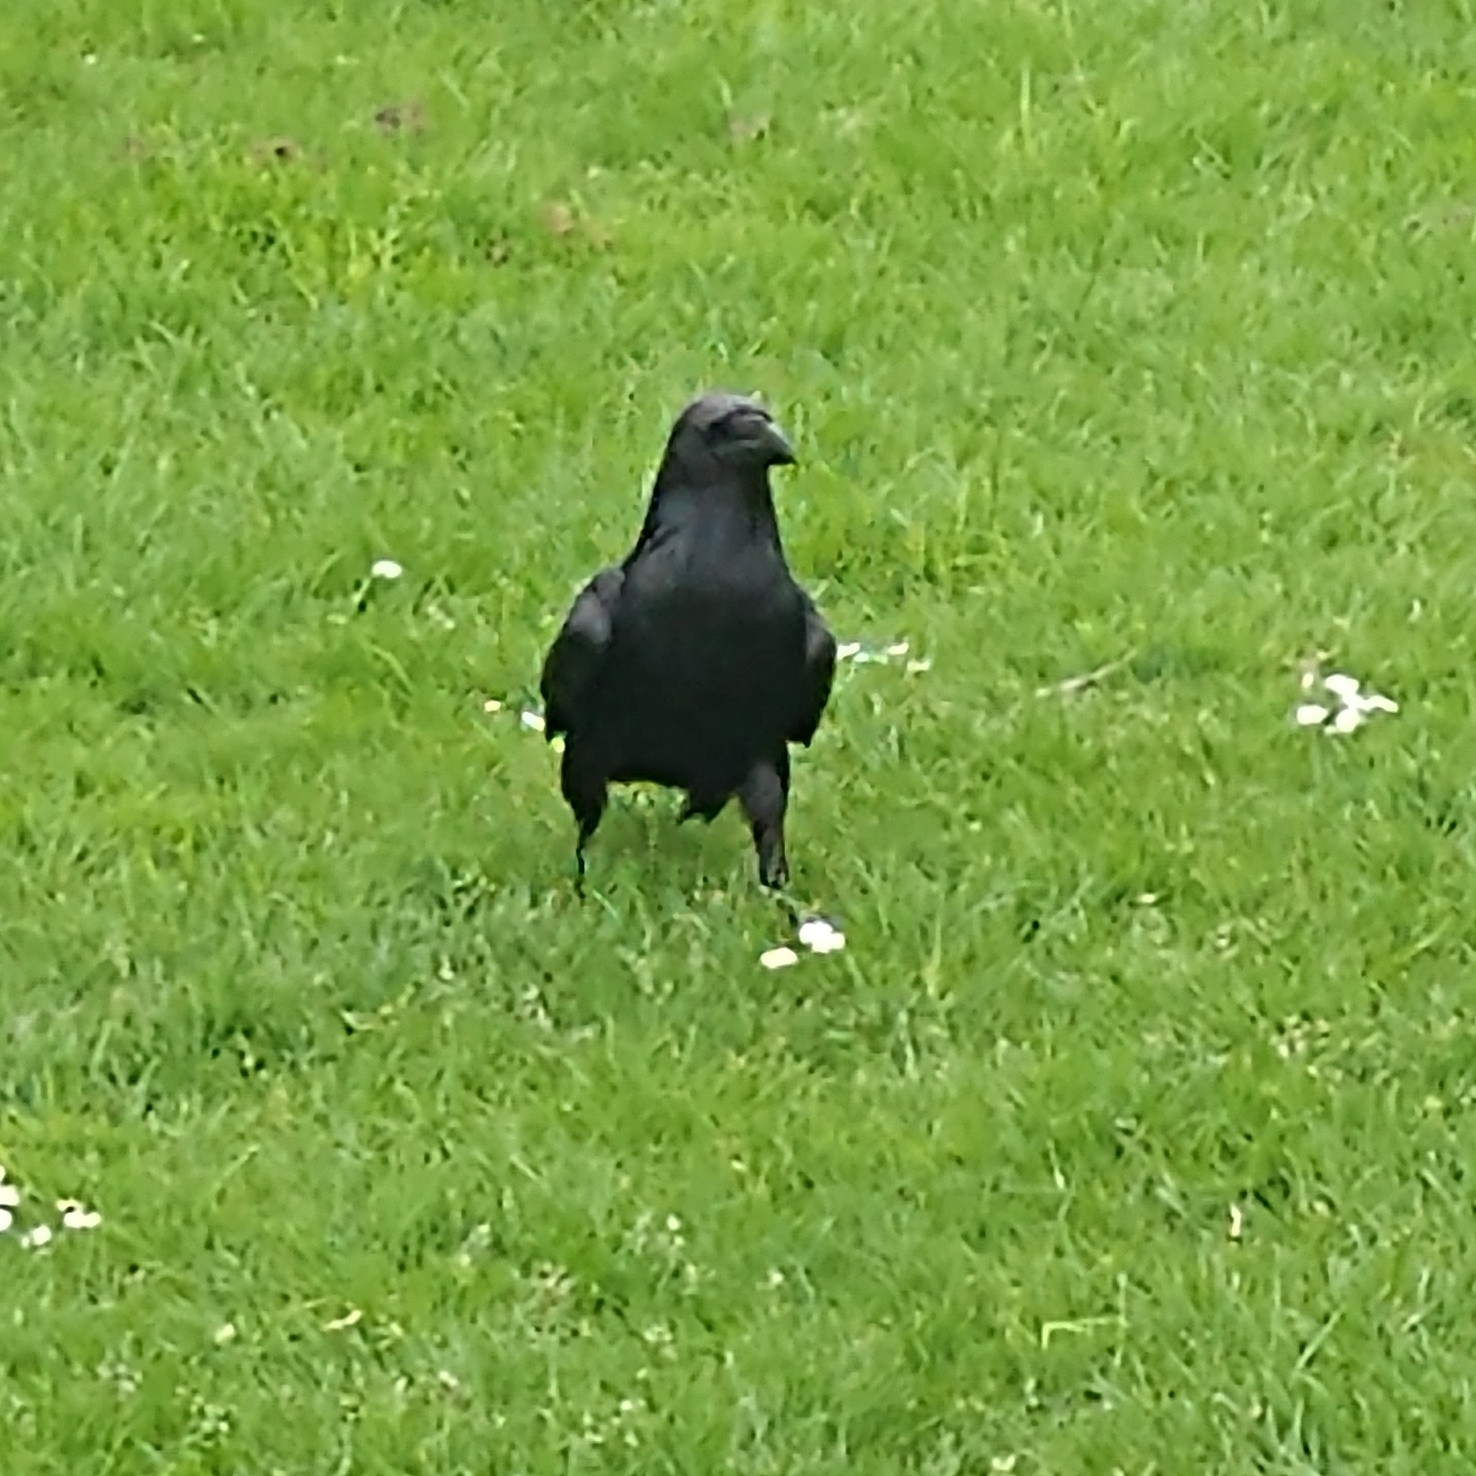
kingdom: Animalia
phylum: Chordata
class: Aves
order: Passeriformes
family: Corvidae
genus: Corvus
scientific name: Corvus corax
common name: Common raven
